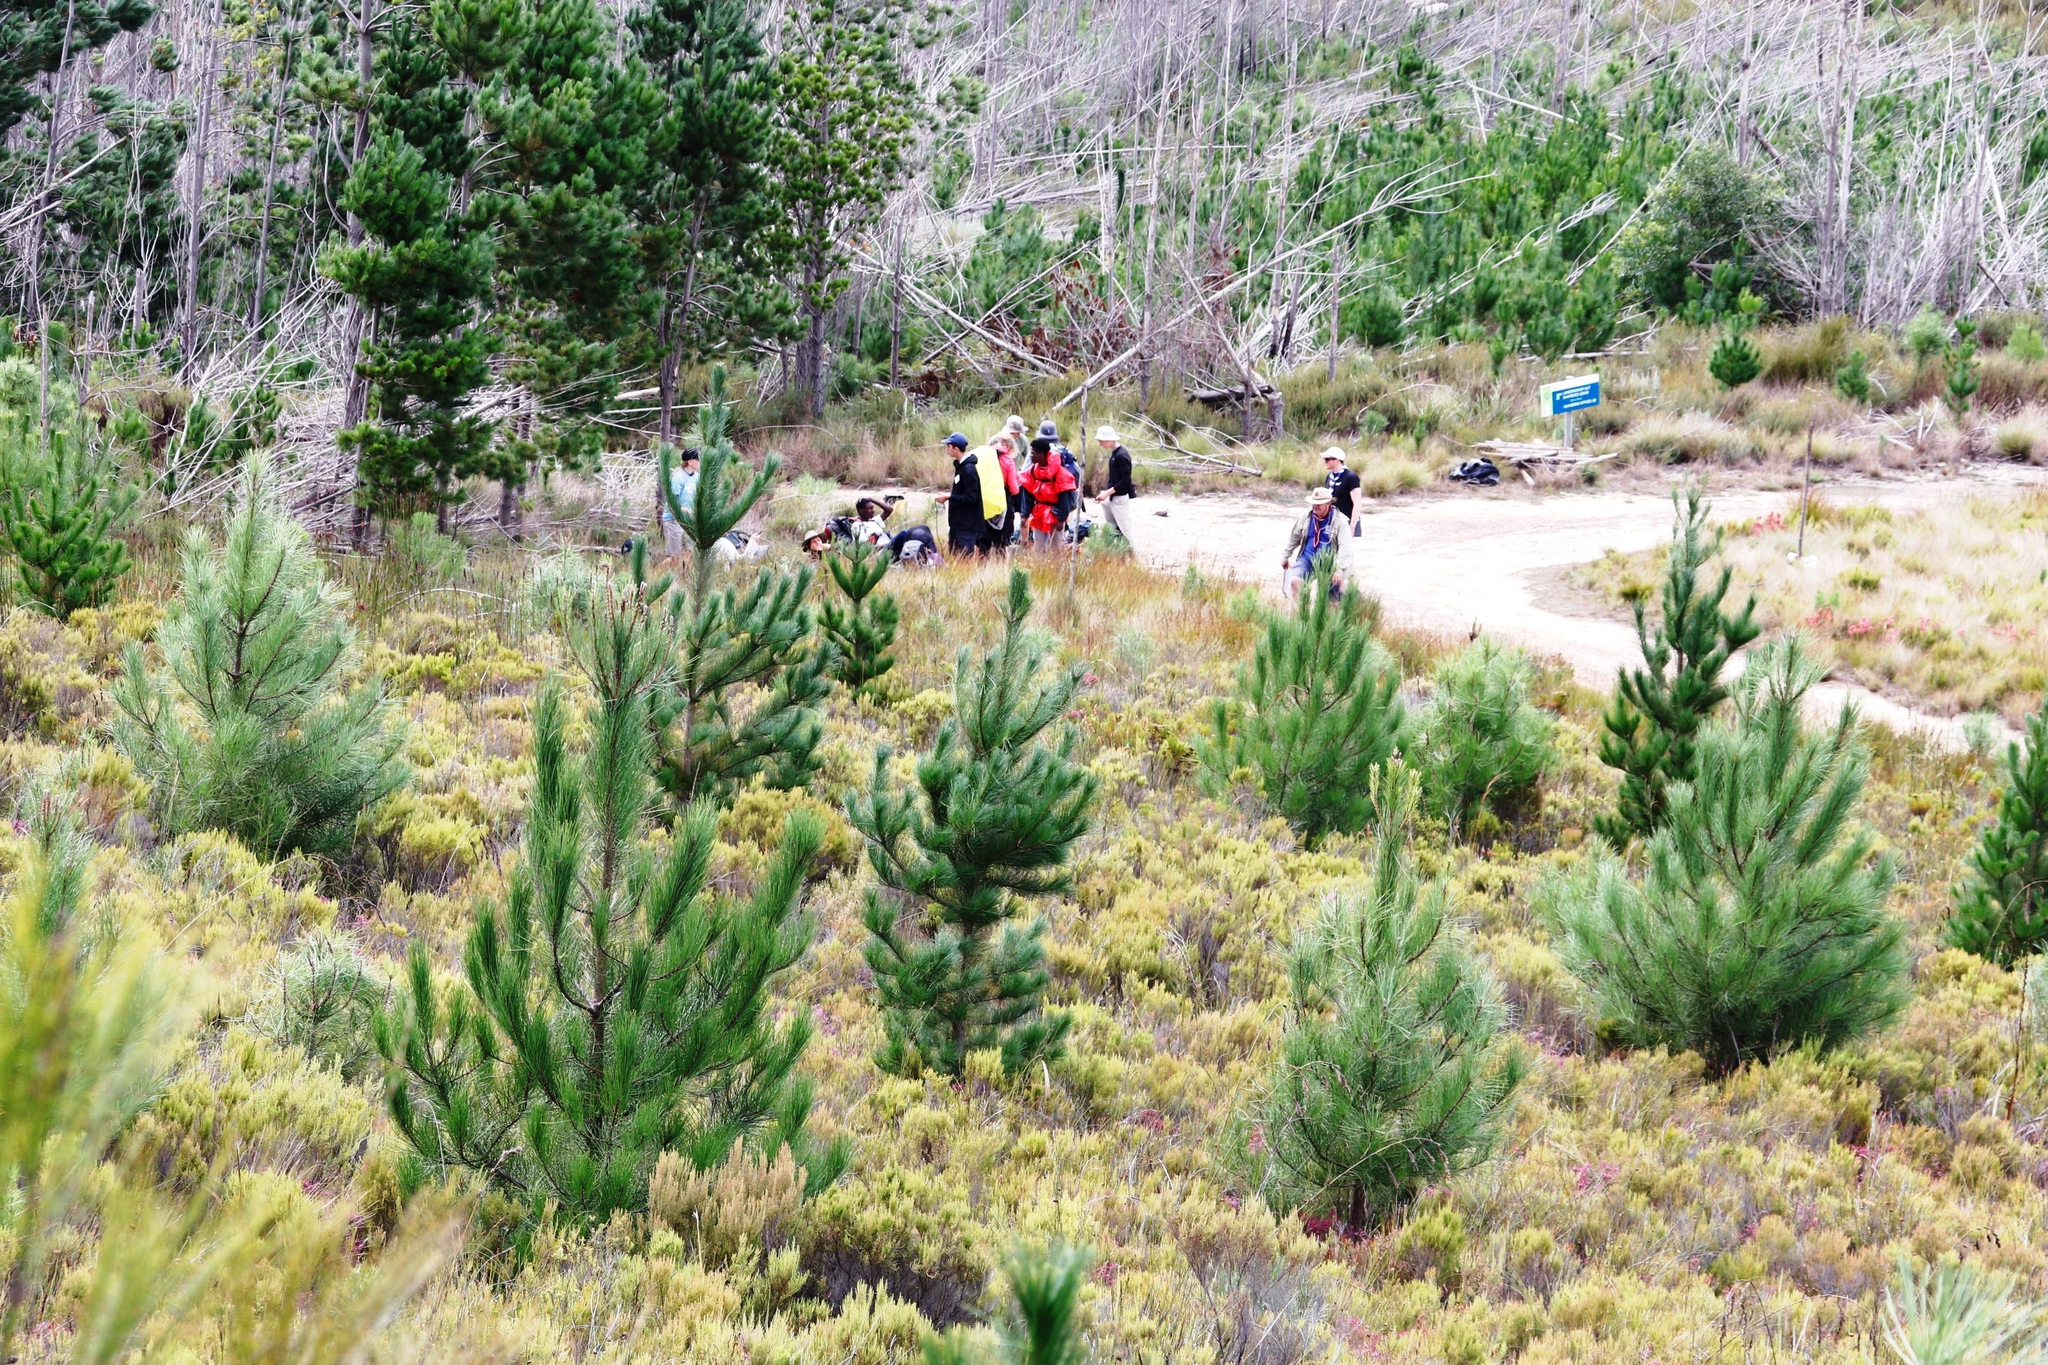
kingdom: Plantae
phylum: Tracheophyta
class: Pinopsida
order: Pinales
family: Pinaceae
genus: Pinus
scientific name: Pinus radiata
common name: Monterey pine
